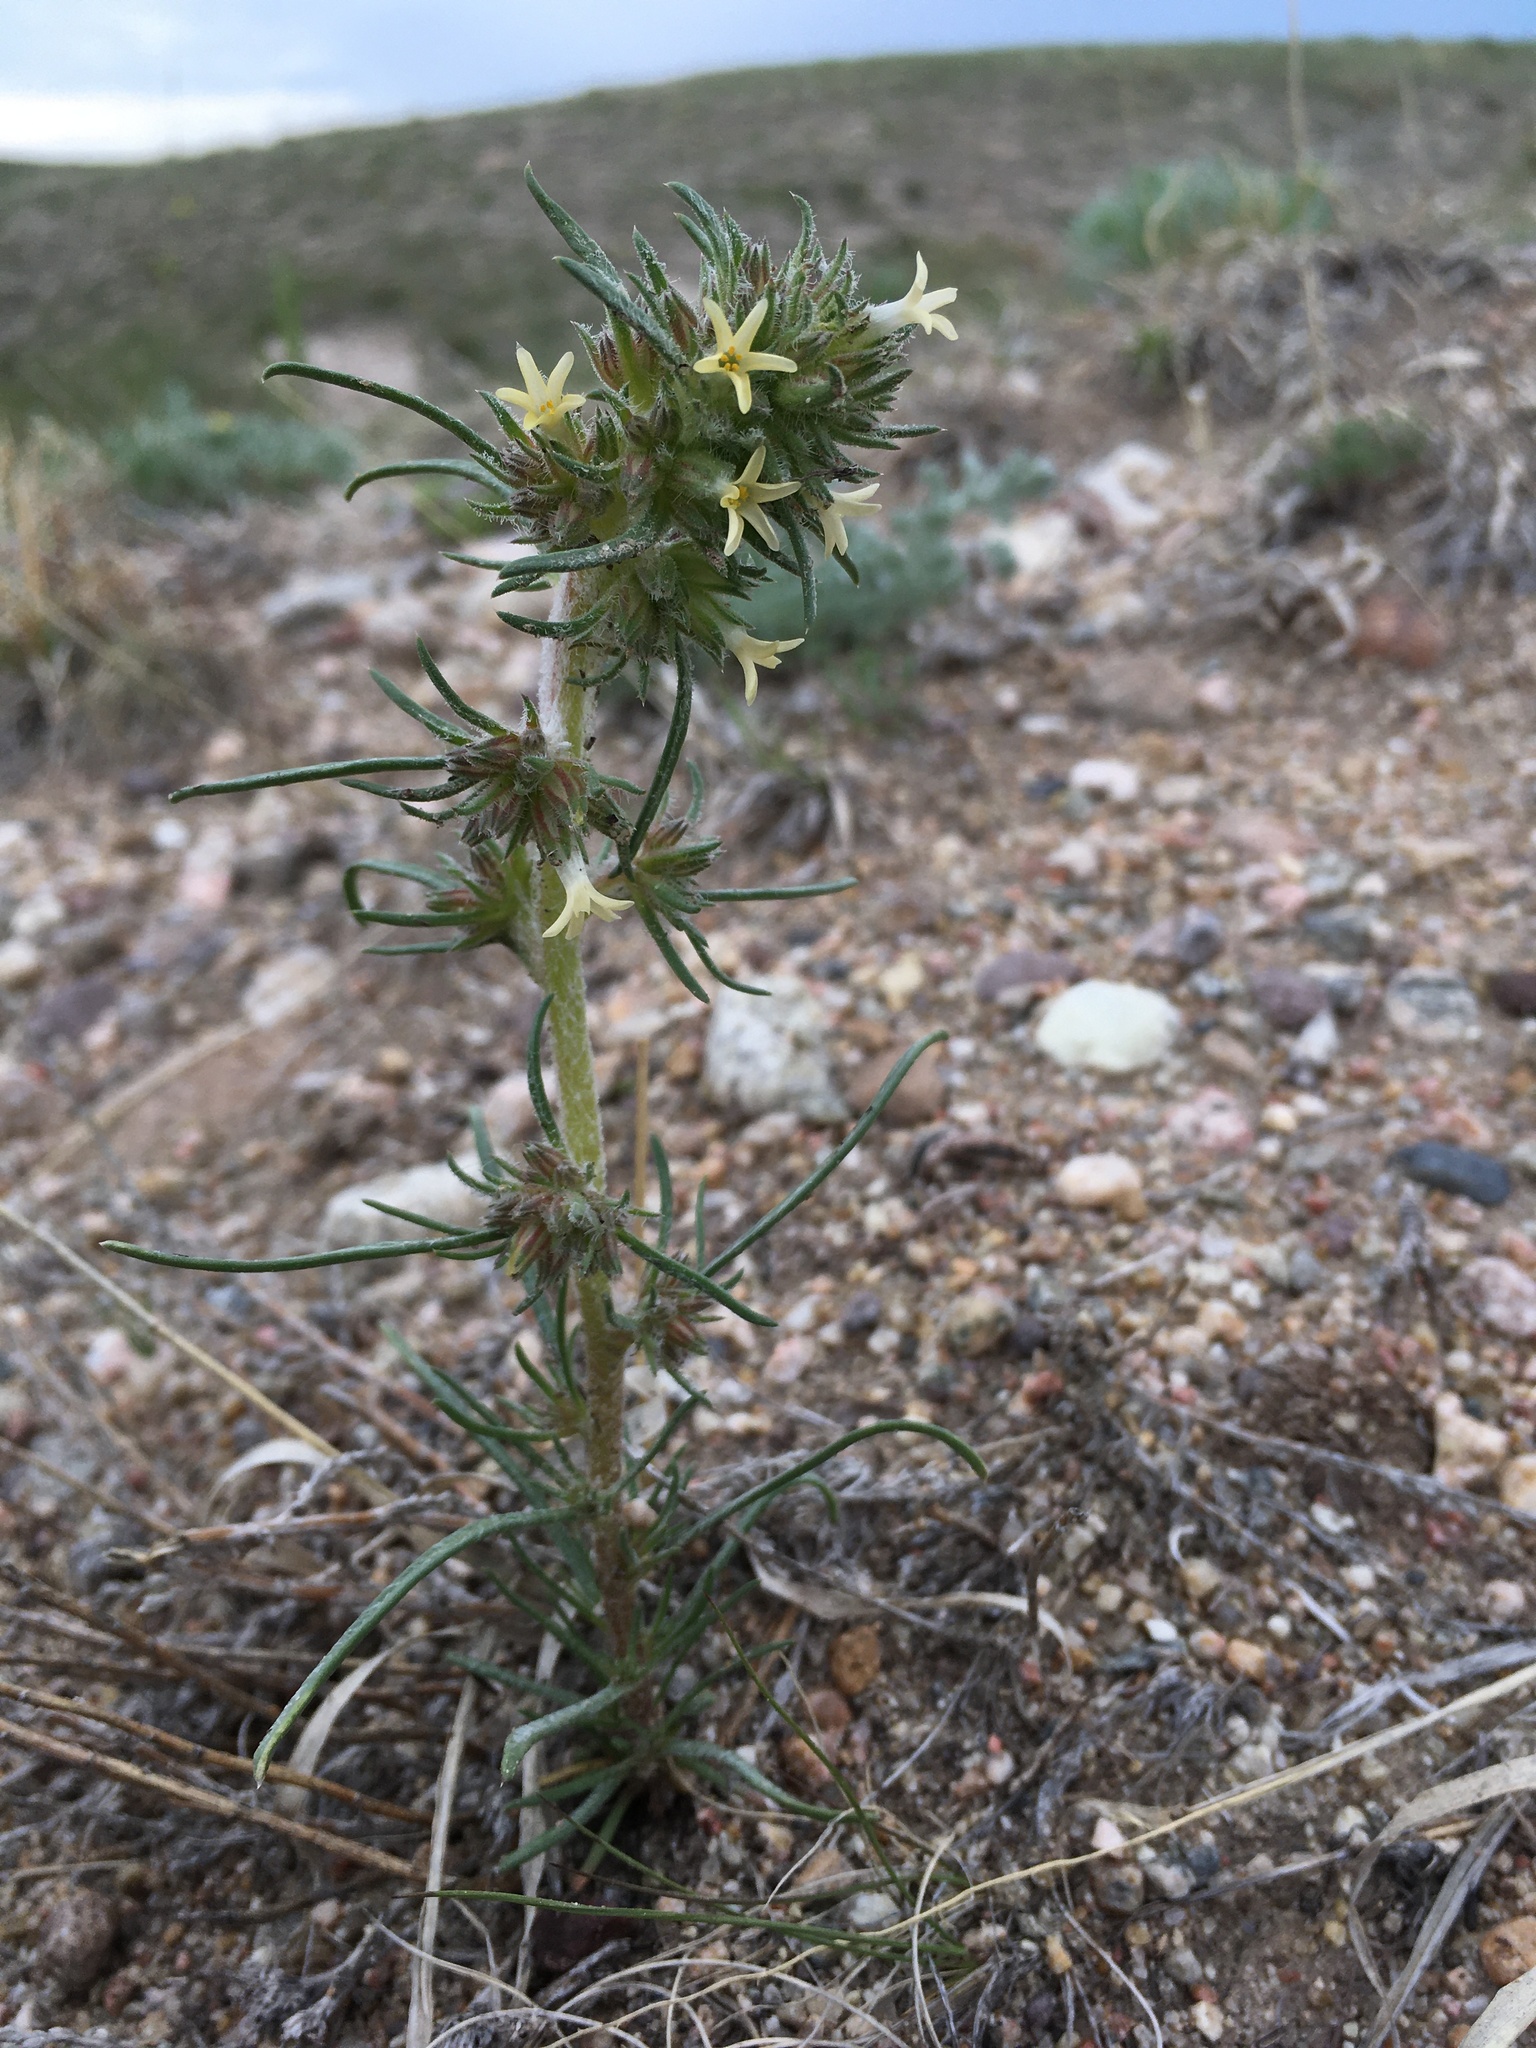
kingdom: Plantae
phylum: Tracheophyta
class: Magnoliopsida
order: Ericales
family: Polemoniaceae
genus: Ipomopsis
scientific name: Ipomopsis spicata
